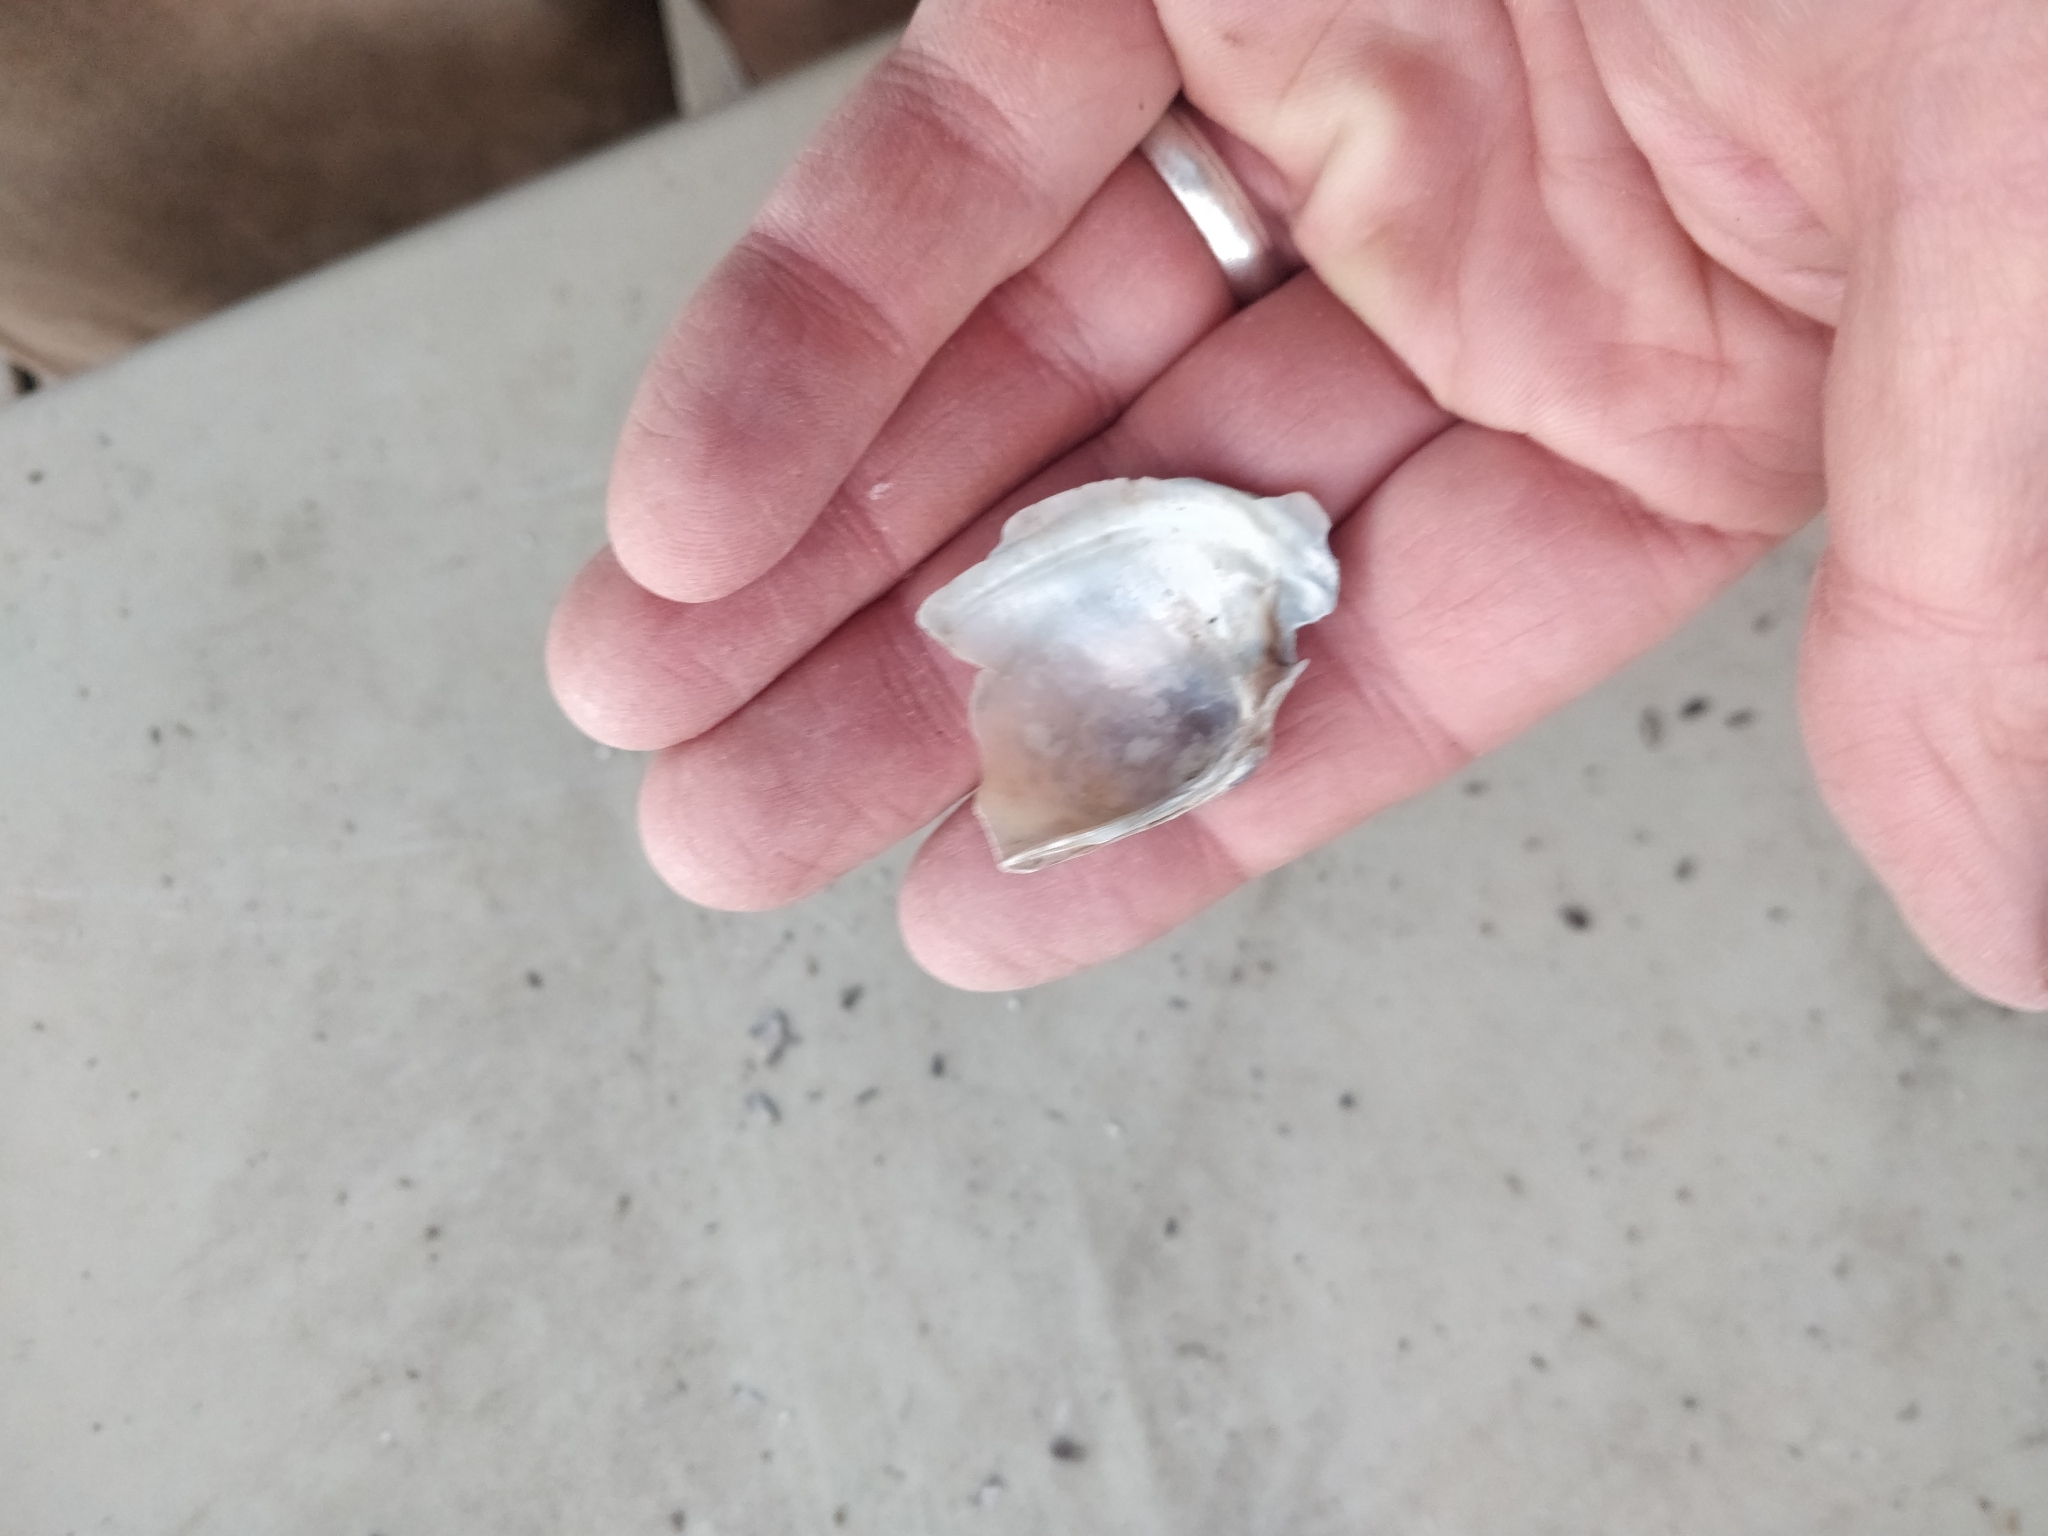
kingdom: Animalia
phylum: Mollusca
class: Bivalvia
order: Unionida
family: Unionidae
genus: Lampsilis
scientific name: Lampsilis siliquoidea
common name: Fatmucket
